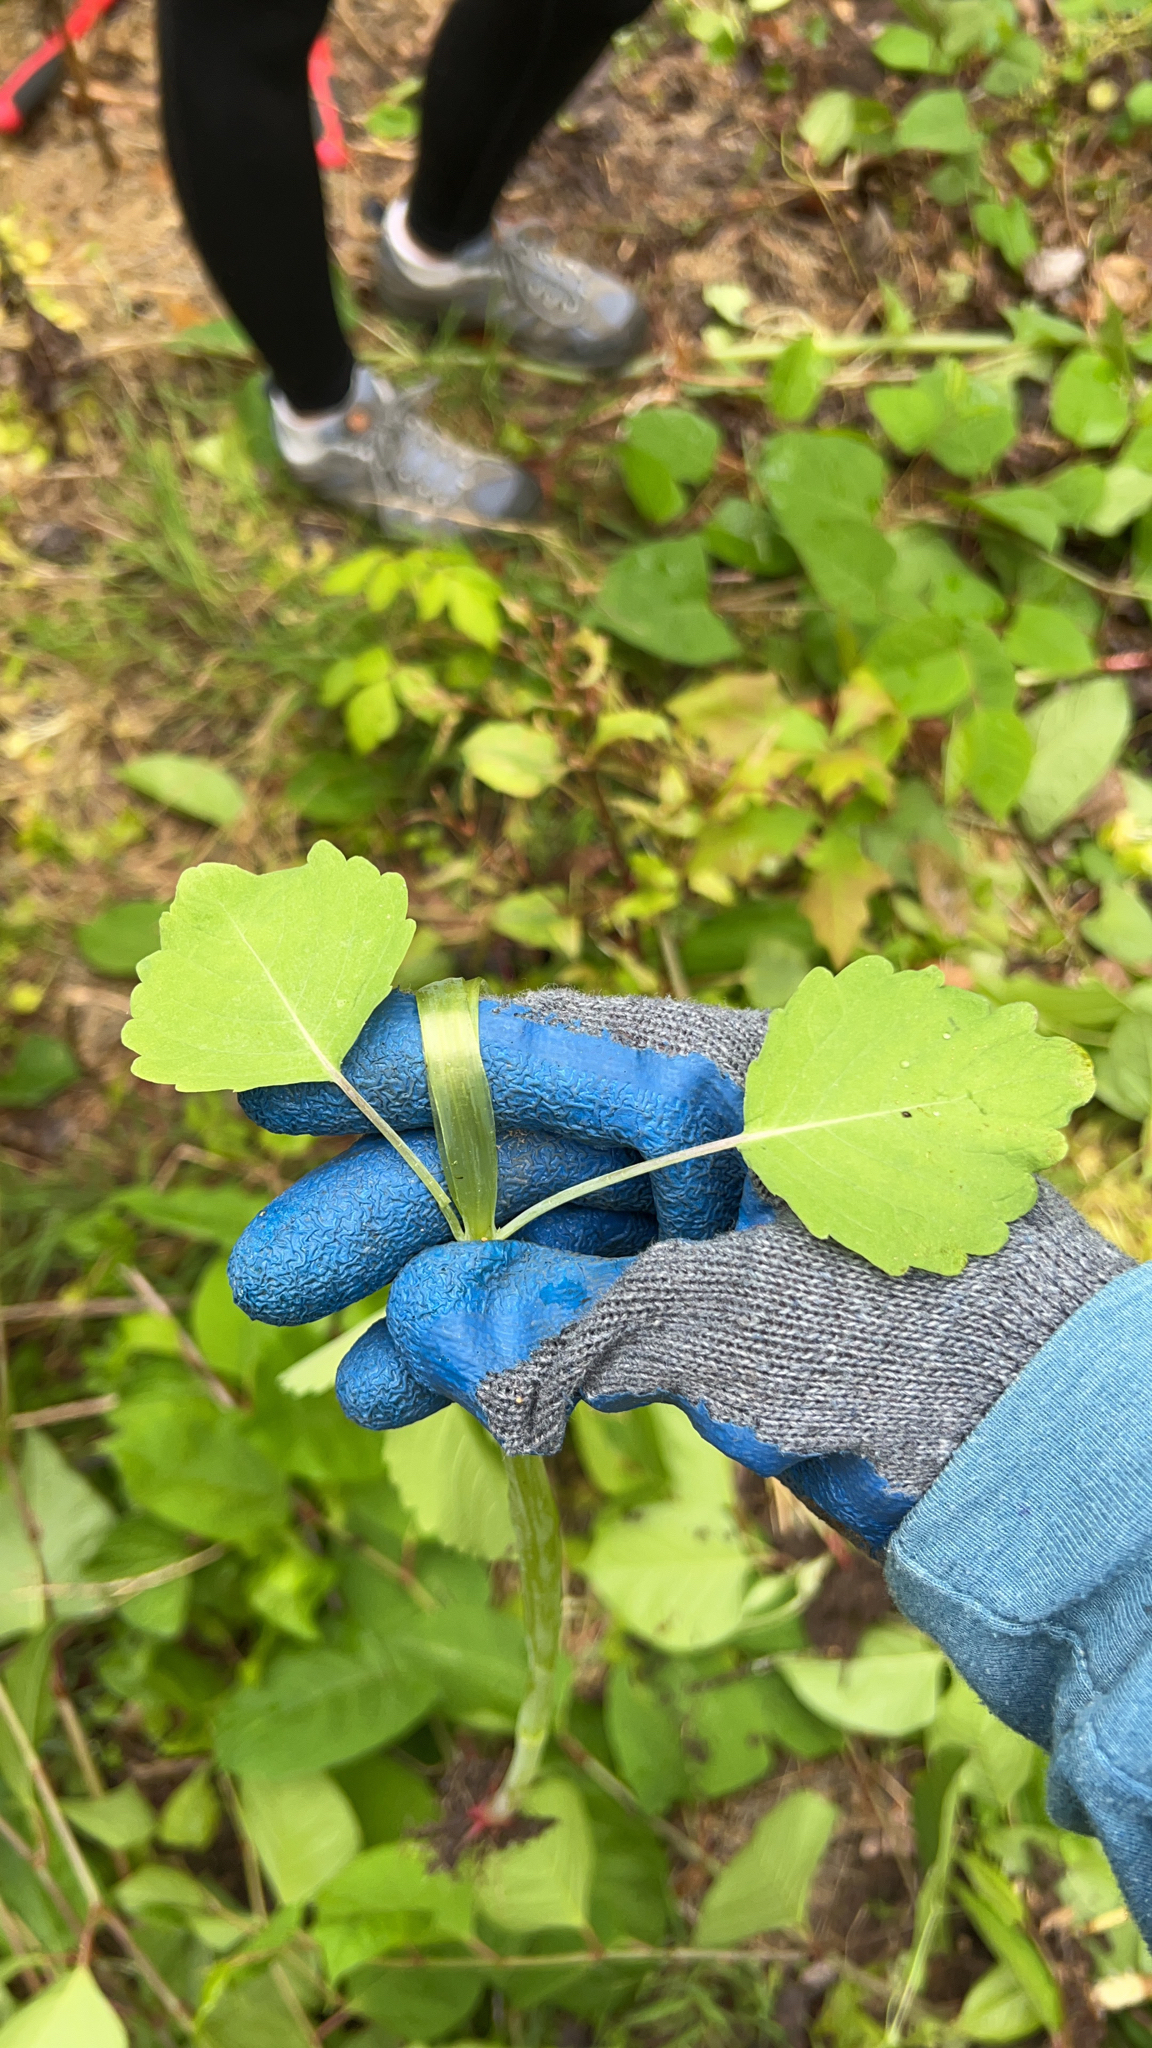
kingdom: Plantae
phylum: Tracheophyta
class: Magnoliopsida
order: Ericales
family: Balsaminaceae
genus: Impatiens
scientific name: Impatiens
